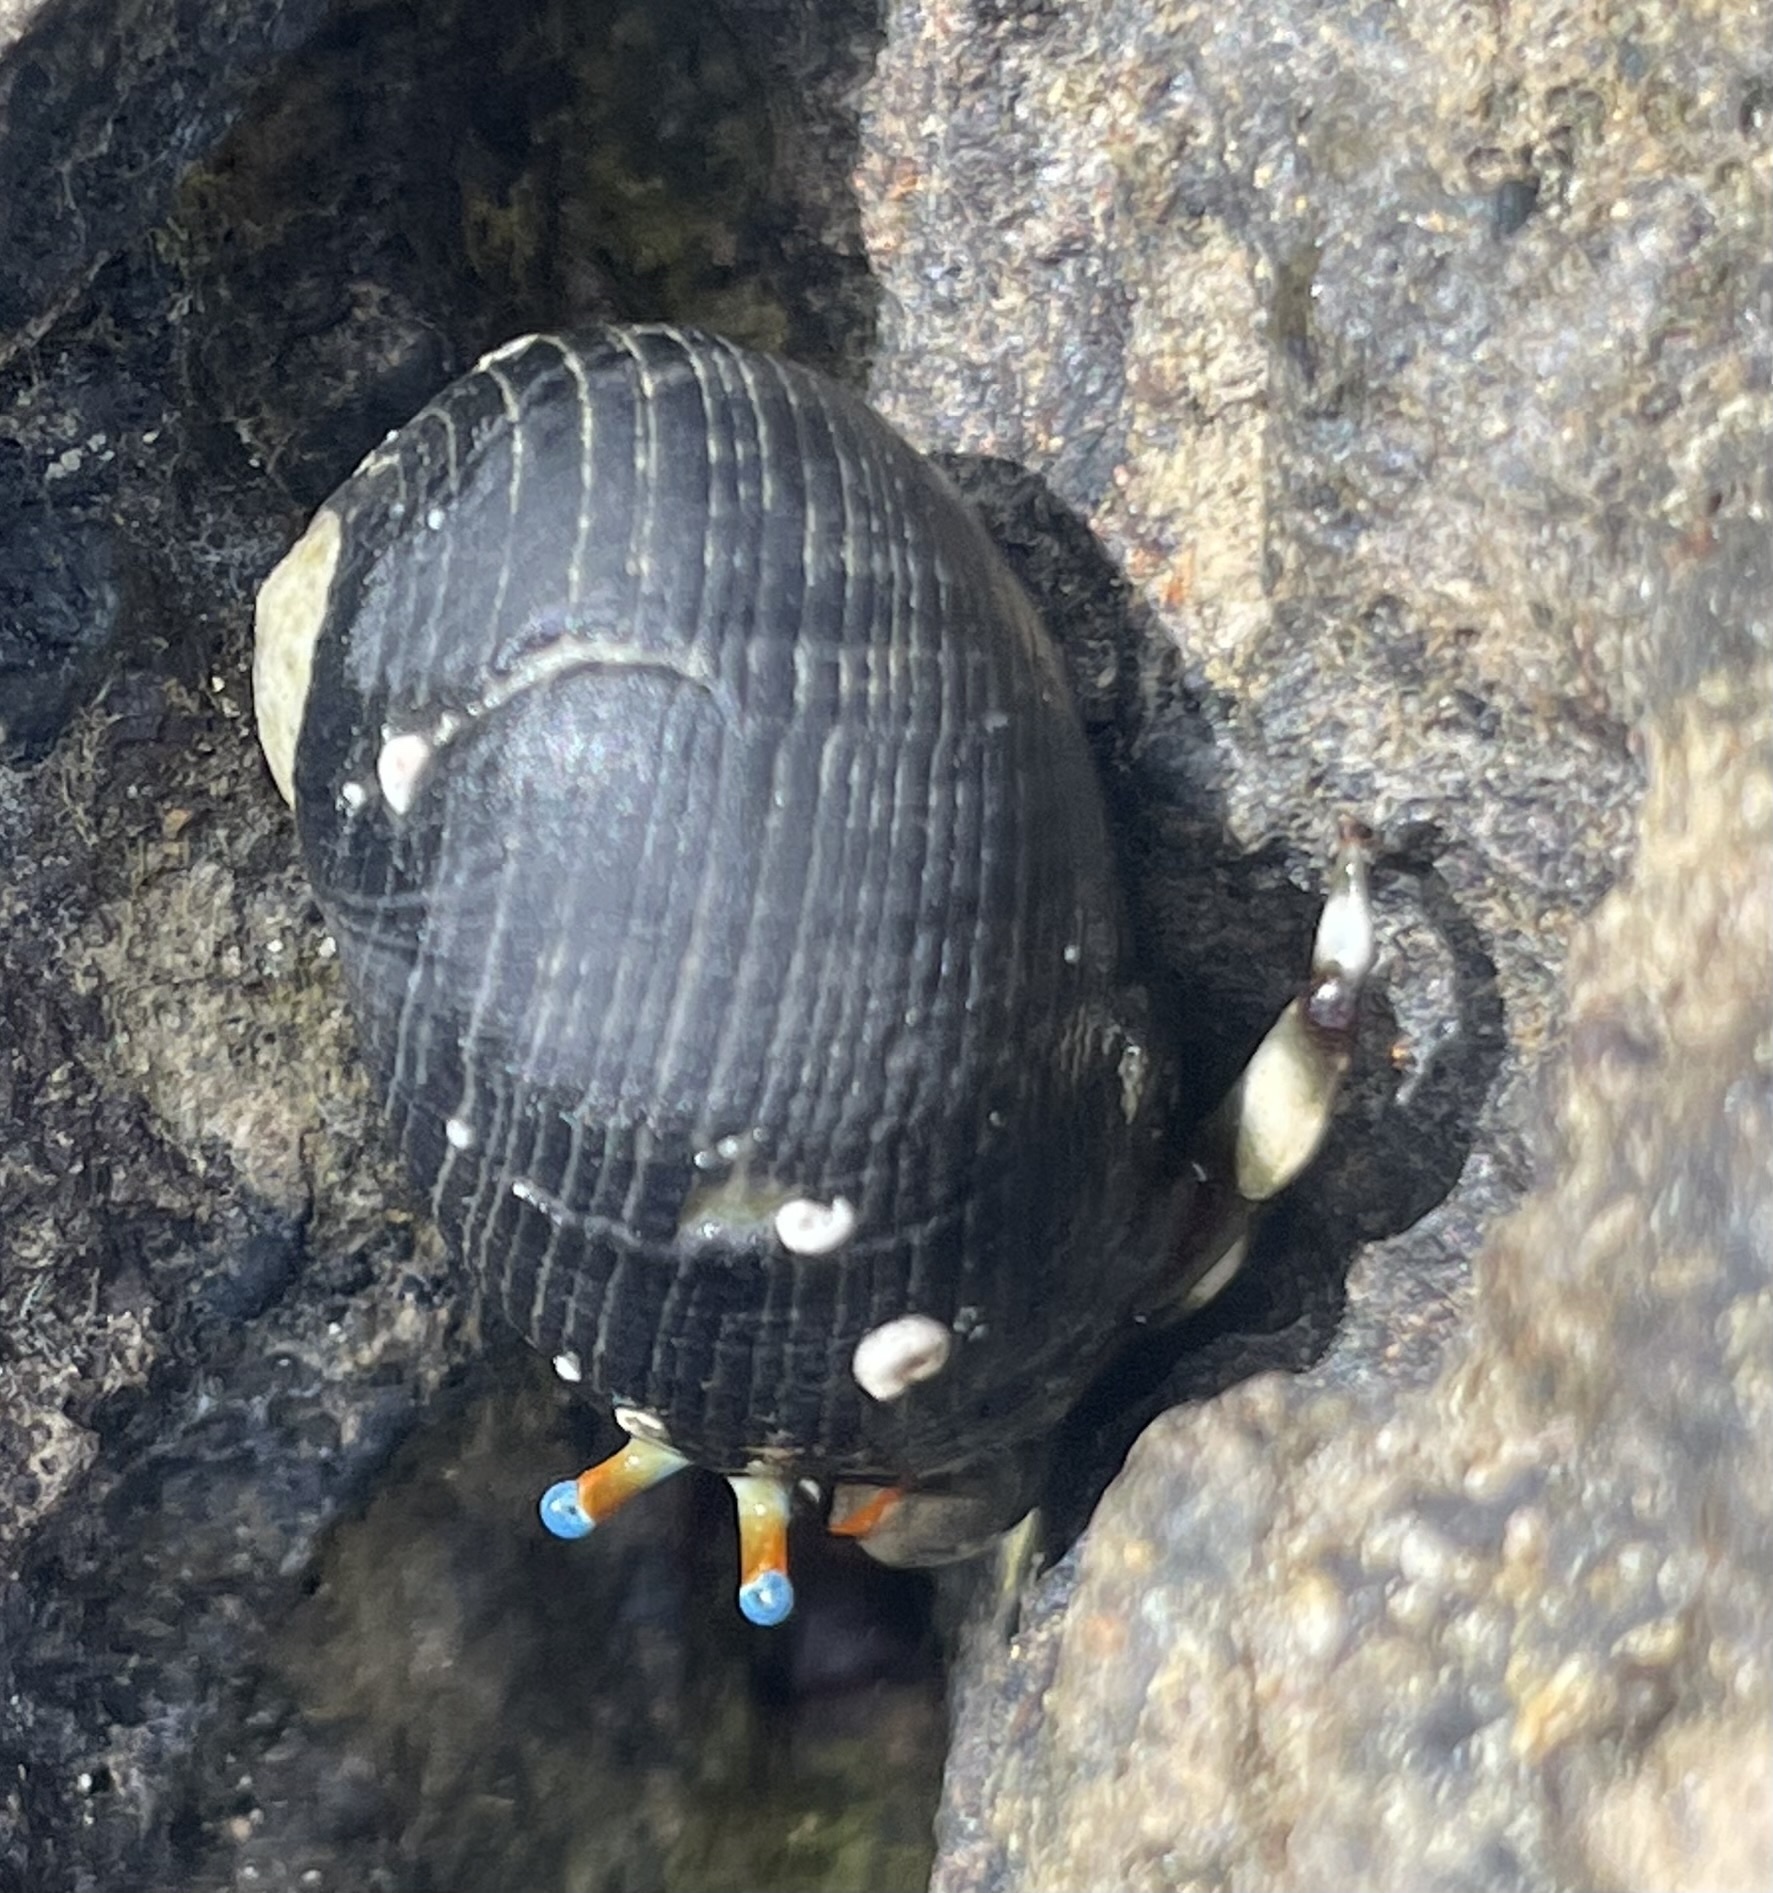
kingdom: Animalia
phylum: Arthropoda
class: Malacostraca
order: Decapoda
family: Diogenidae
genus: Calcinus
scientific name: Calcinus seurati
